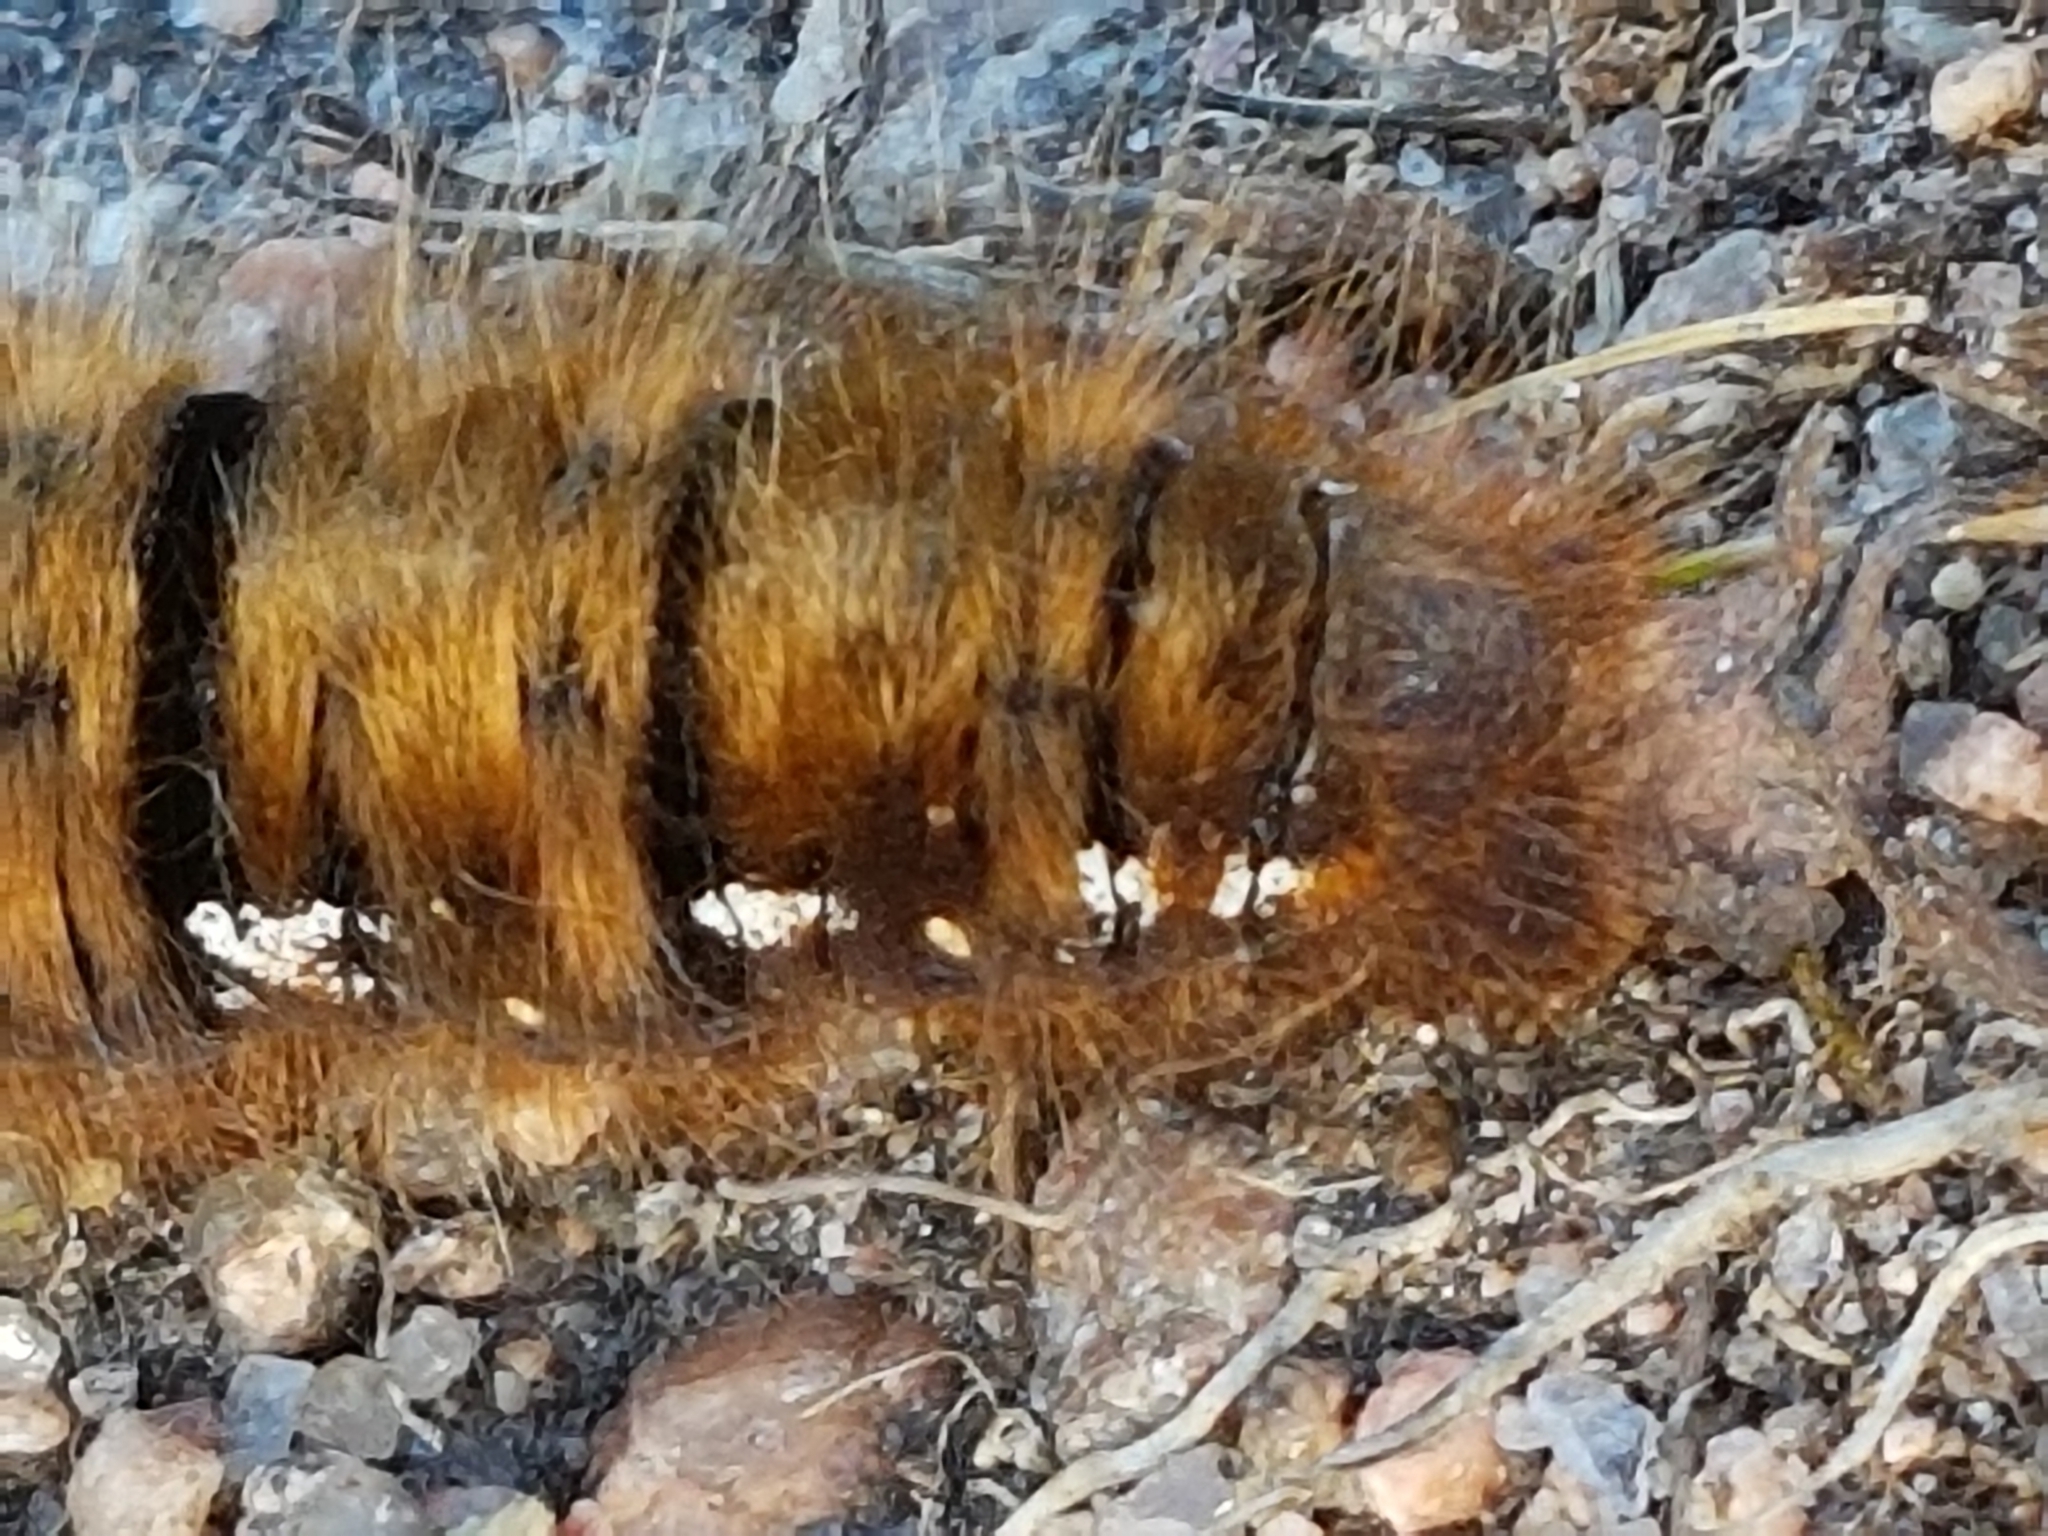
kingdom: Animalia
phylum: Arthropoda
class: Insecta
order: Lepidoptera
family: Lasiocampidae
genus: Lasiocampa
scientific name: Lasiocampa quercus
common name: Oak eggar
